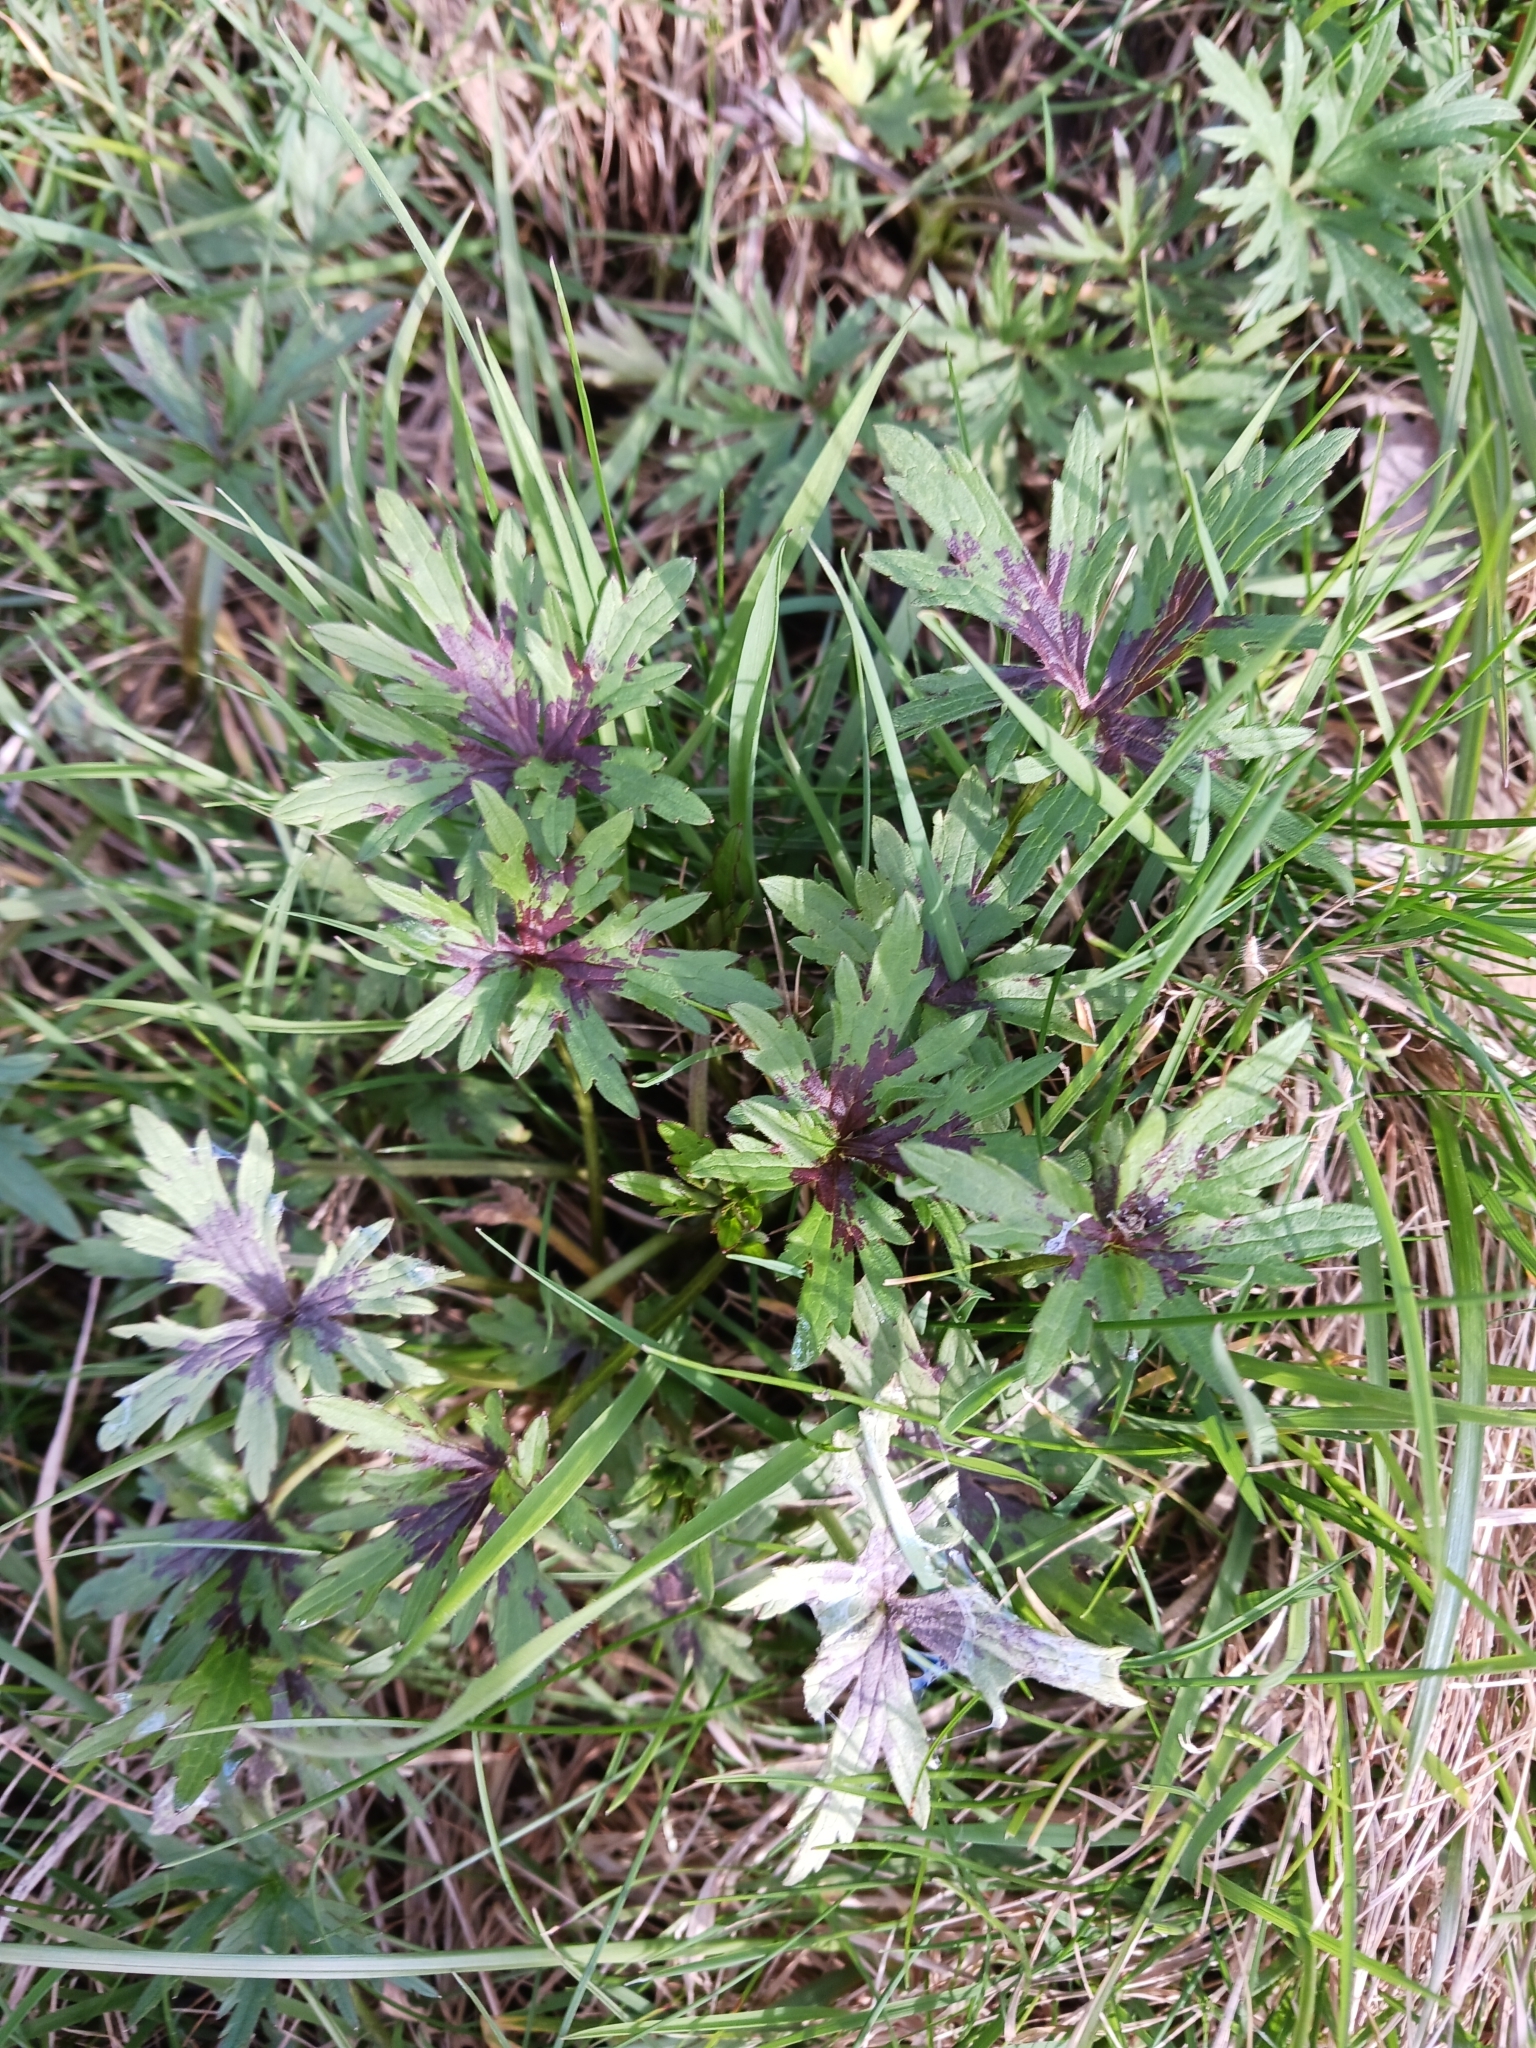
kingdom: Plantae
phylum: Tracheophyta
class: Magnoliopsida
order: Ranunculales
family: Ranunculaceae
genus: Ranunculus
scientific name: Ranunculus acris
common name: Meadow buttercup
